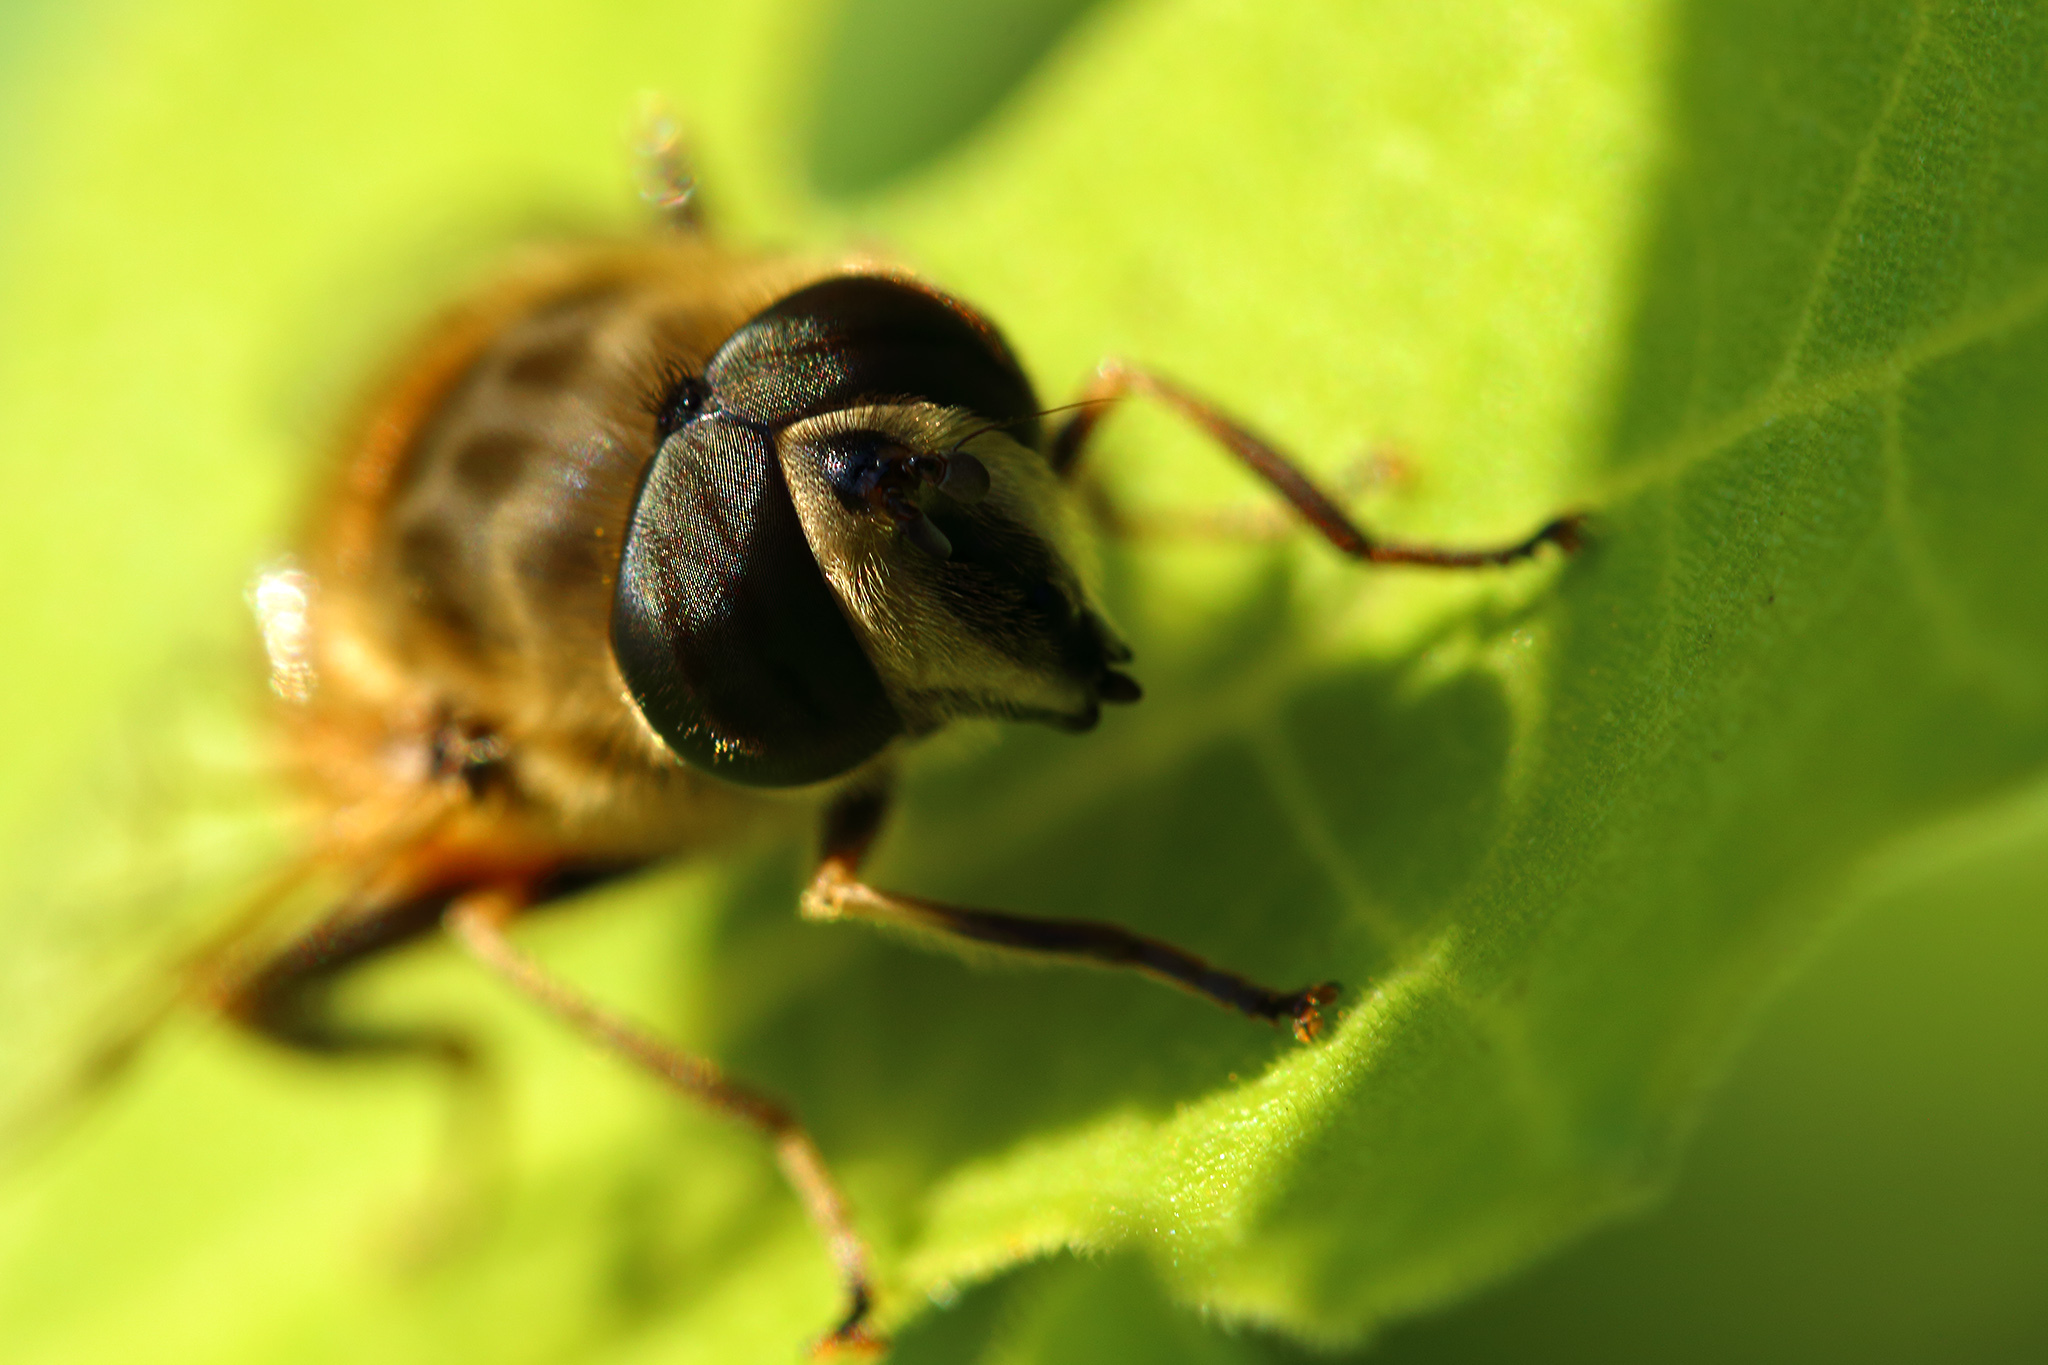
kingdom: Animalia
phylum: Arthropoda
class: Insecta
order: Diptera
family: Syrphidae
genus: Eristalis
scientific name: Eristalis tenax
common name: Drone fly
